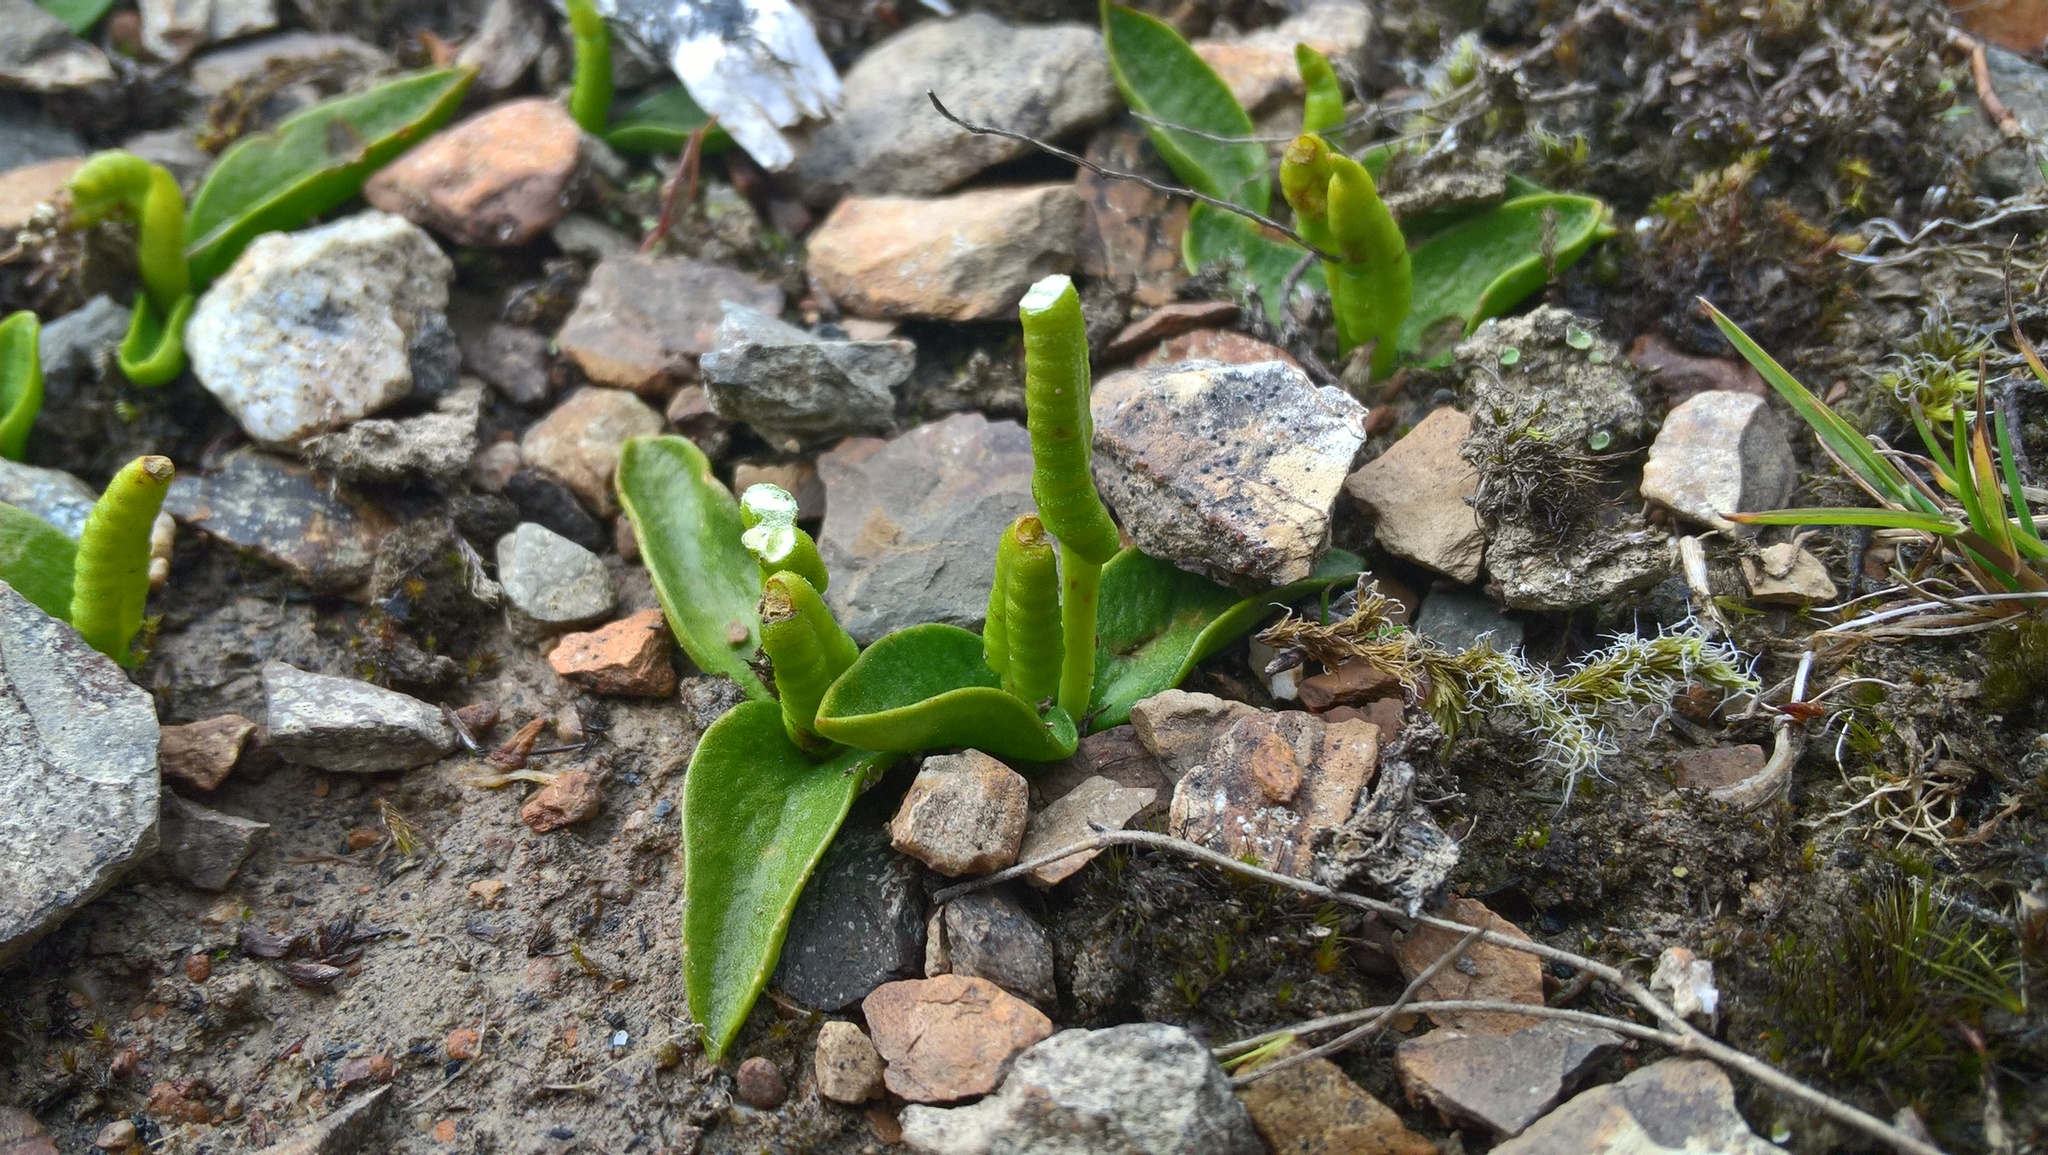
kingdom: Plantae
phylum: Tracheophyta
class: Polypodiopsida
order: Ophioglossales
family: Ophioglossaceae
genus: Ophioglossum
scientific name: Ophioglossum coriaceum
